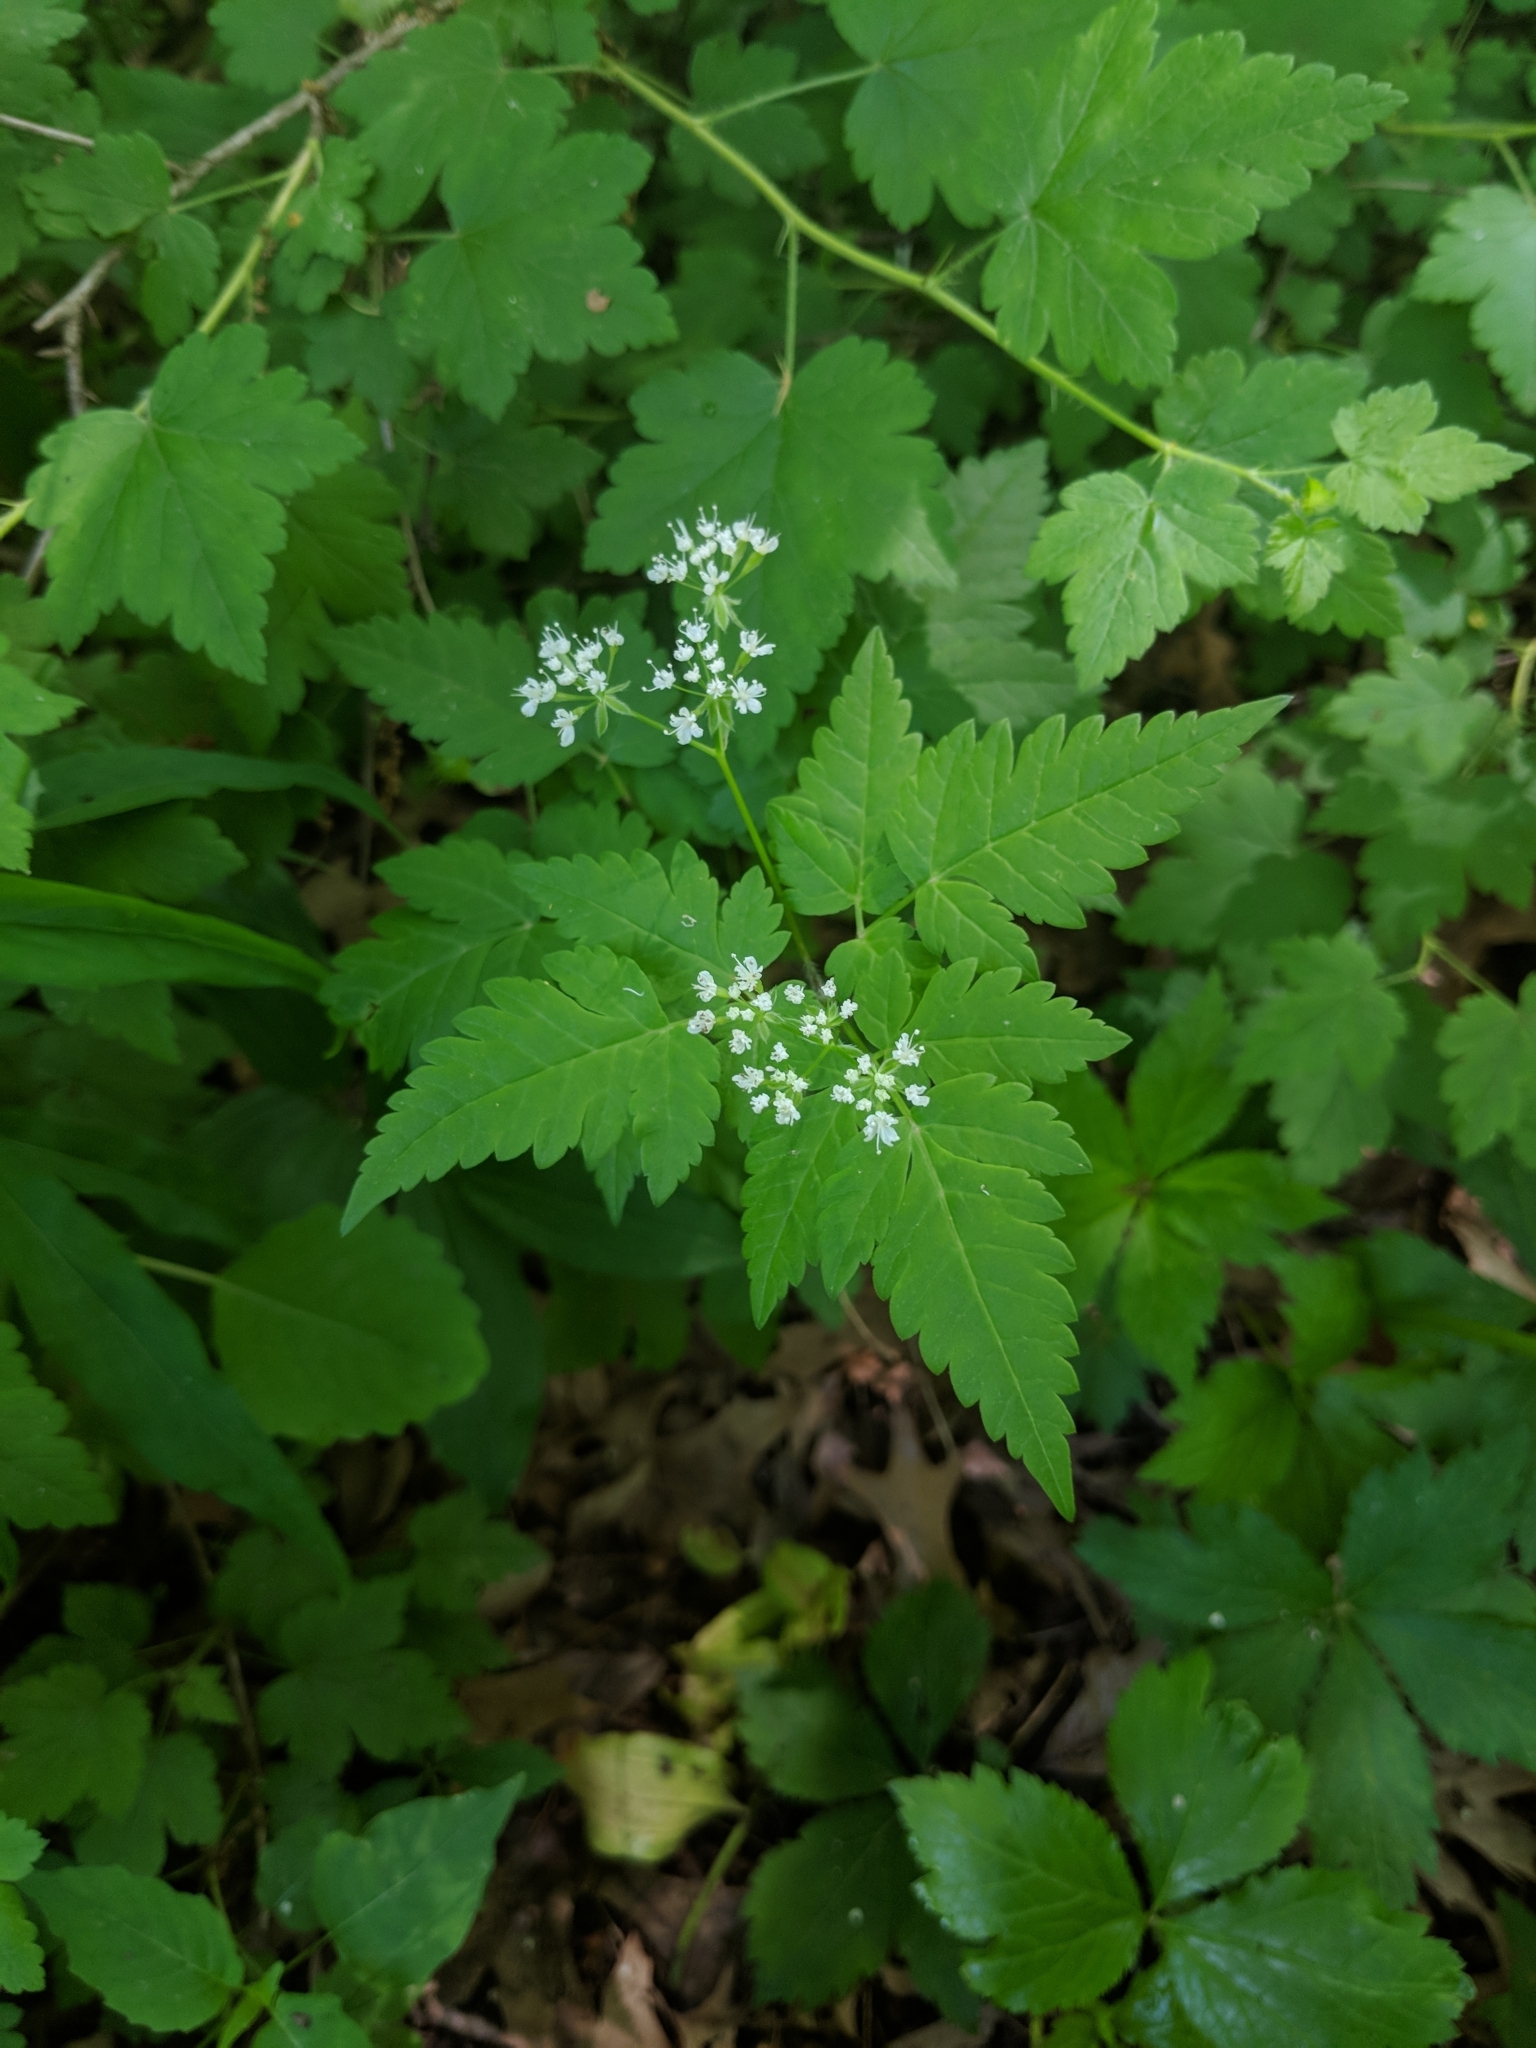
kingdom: Plantae
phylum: Tracheophyta
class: Magnoliopsida
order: Apiales
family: Apiaceae
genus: Osmorhiza
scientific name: Osmorhiza longistylis
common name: Smooth sweet cicely
